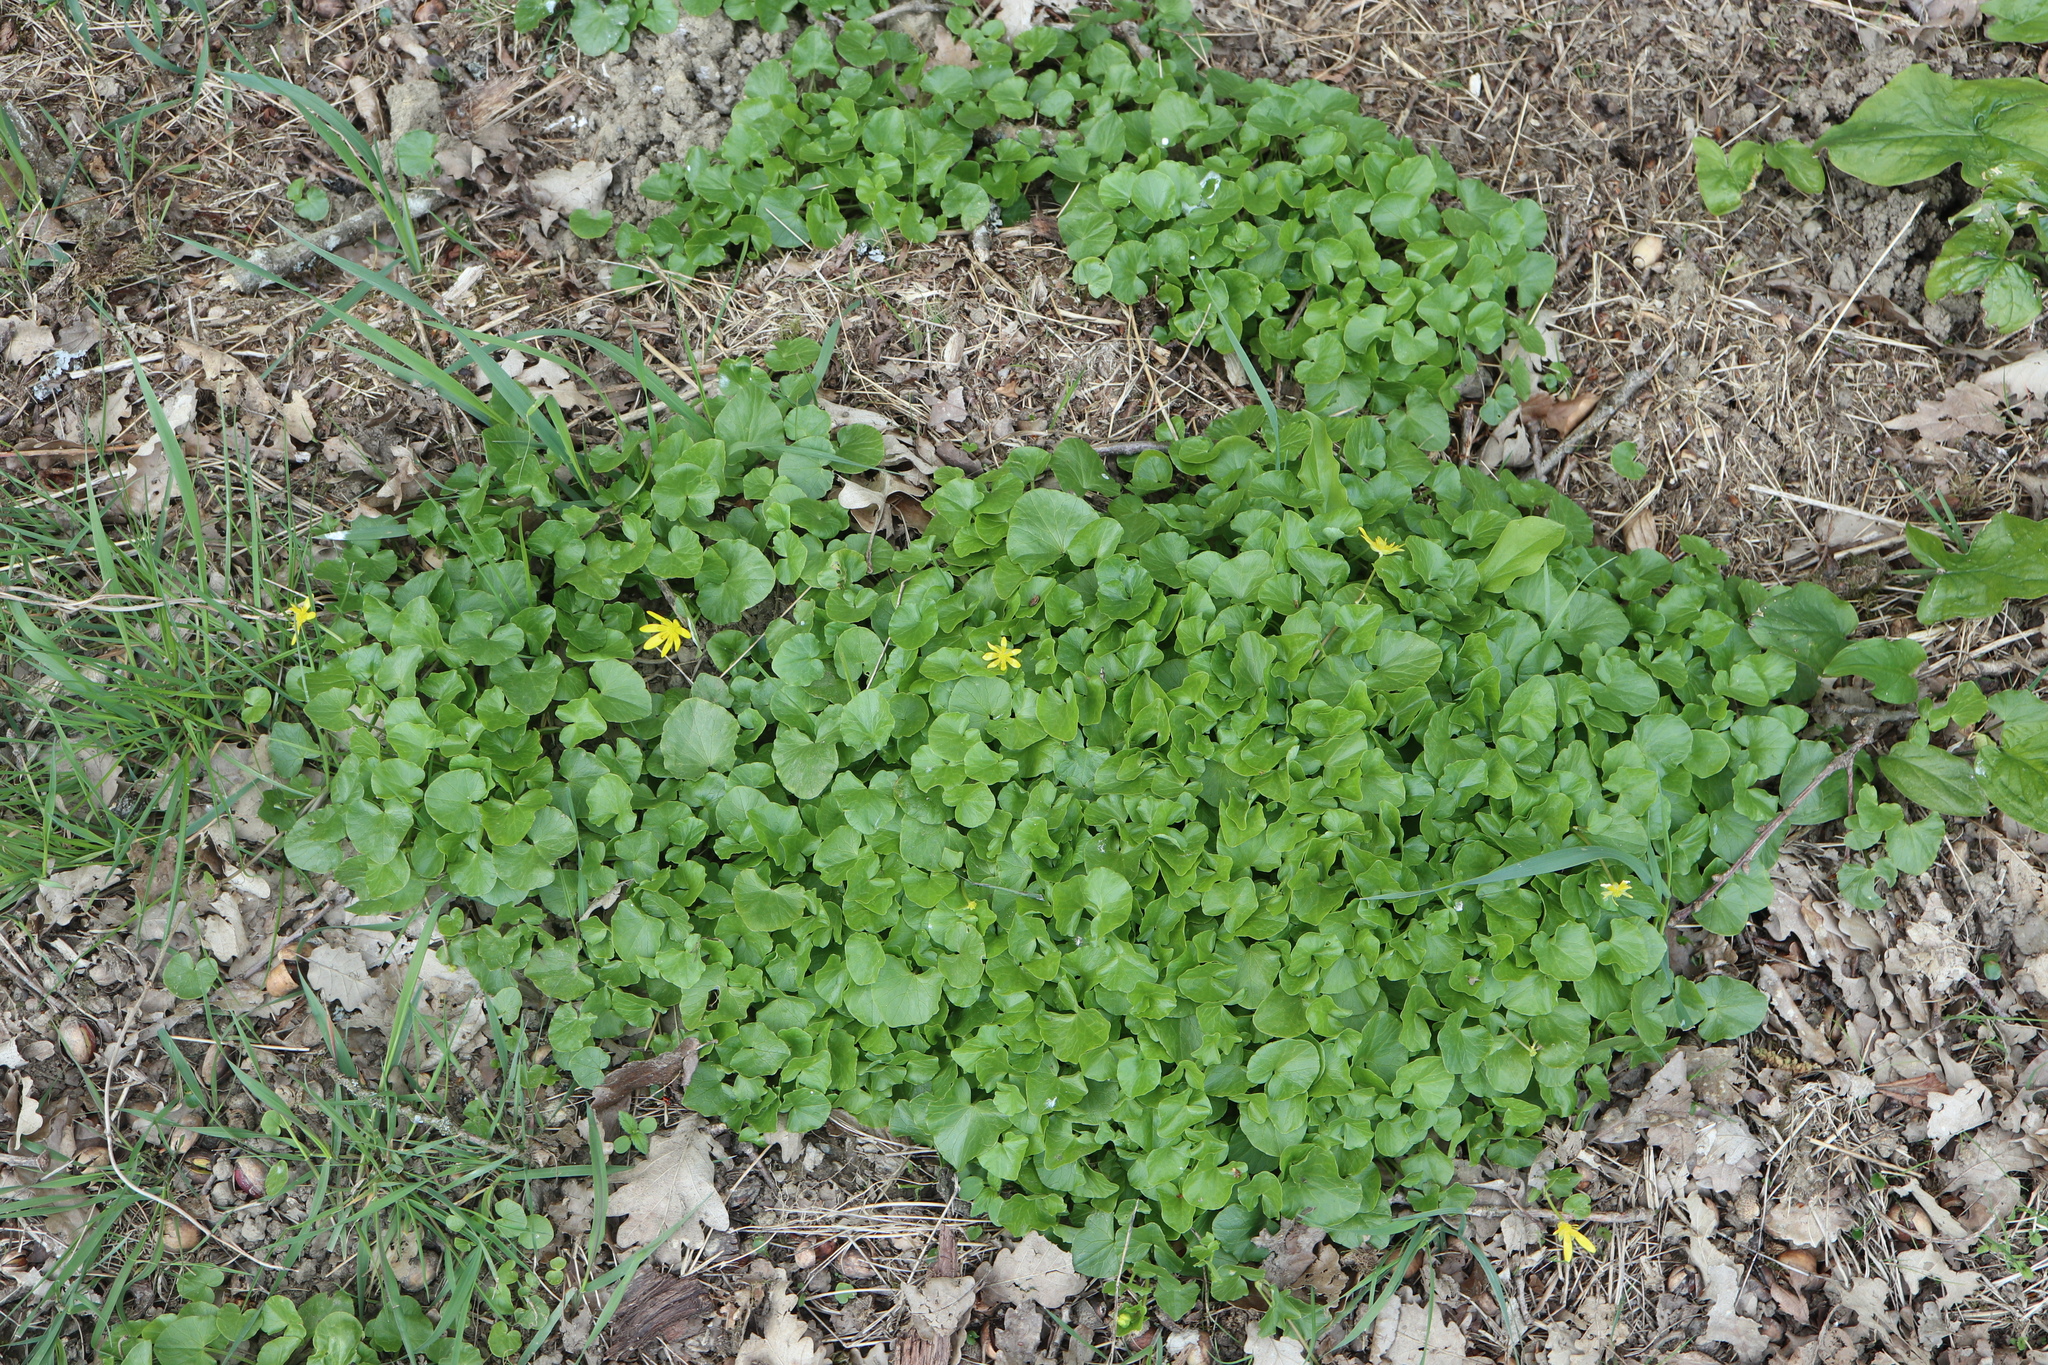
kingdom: Plantae
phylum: Tracheophyta
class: Magnoliopsida
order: Ranunculales
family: Ranunculaceae
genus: Ficaria
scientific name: Ficaria verna
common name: Lesser celandine
